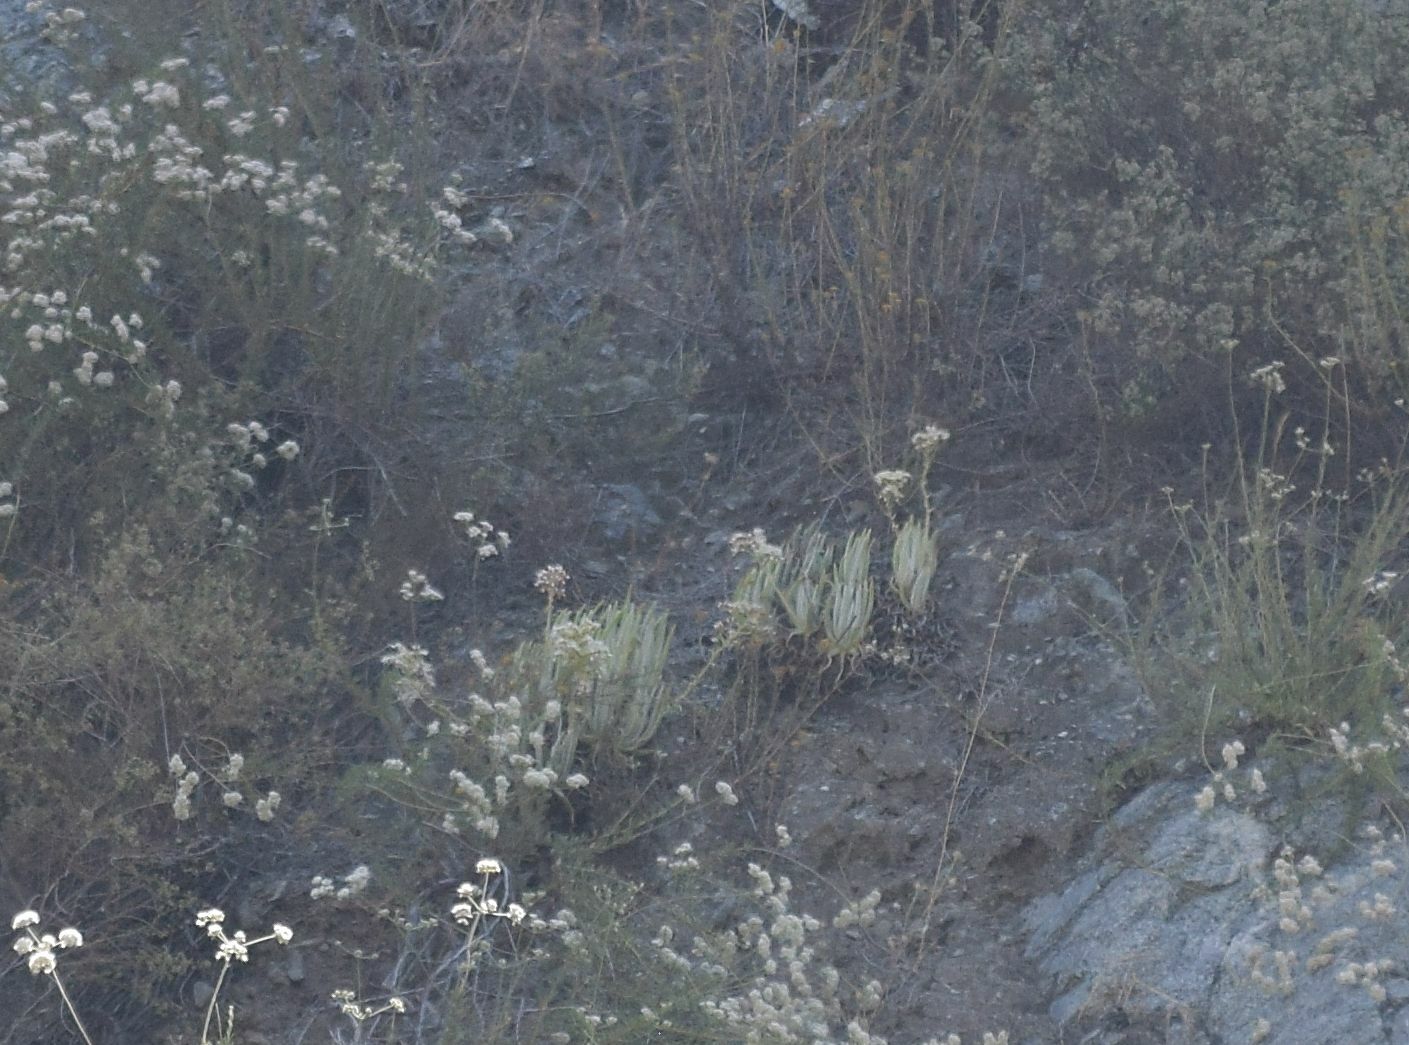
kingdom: Plantae
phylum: Tracheophyta
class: Magnoliopsida
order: Saxifragales
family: Crassulaceae
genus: Dudleya
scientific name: Dudleya densiflora
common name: San gabriel mountains dudleya
